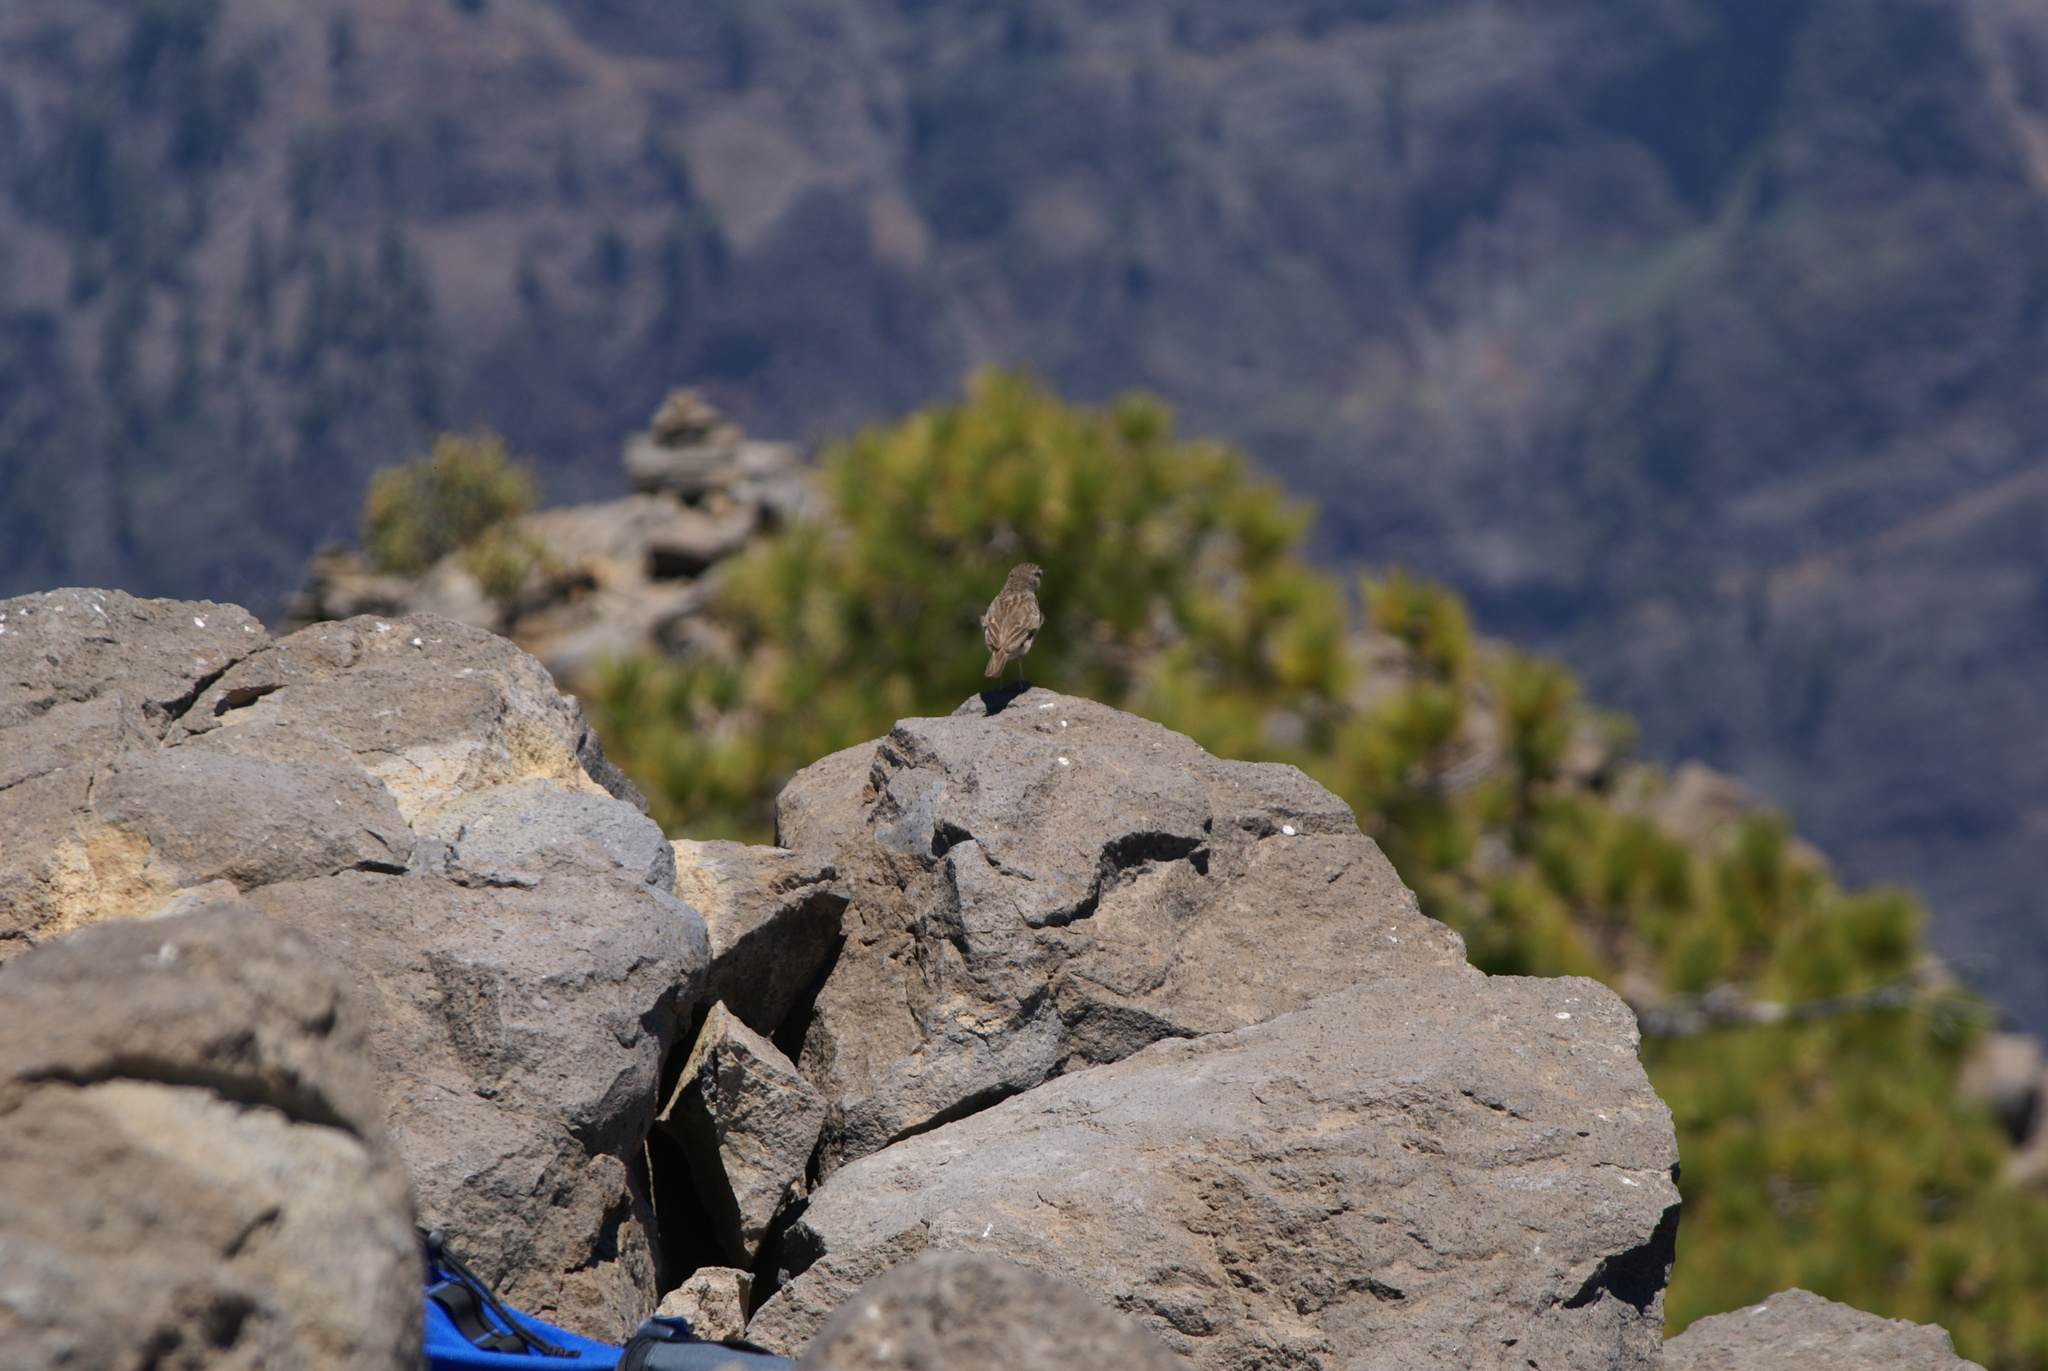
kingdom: Animalia
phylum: Chordata
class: Aves
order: Passeriformes
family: Motacillidae
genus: Anthus
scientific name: Anthus berthelotii
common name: Berthelot's pipit
